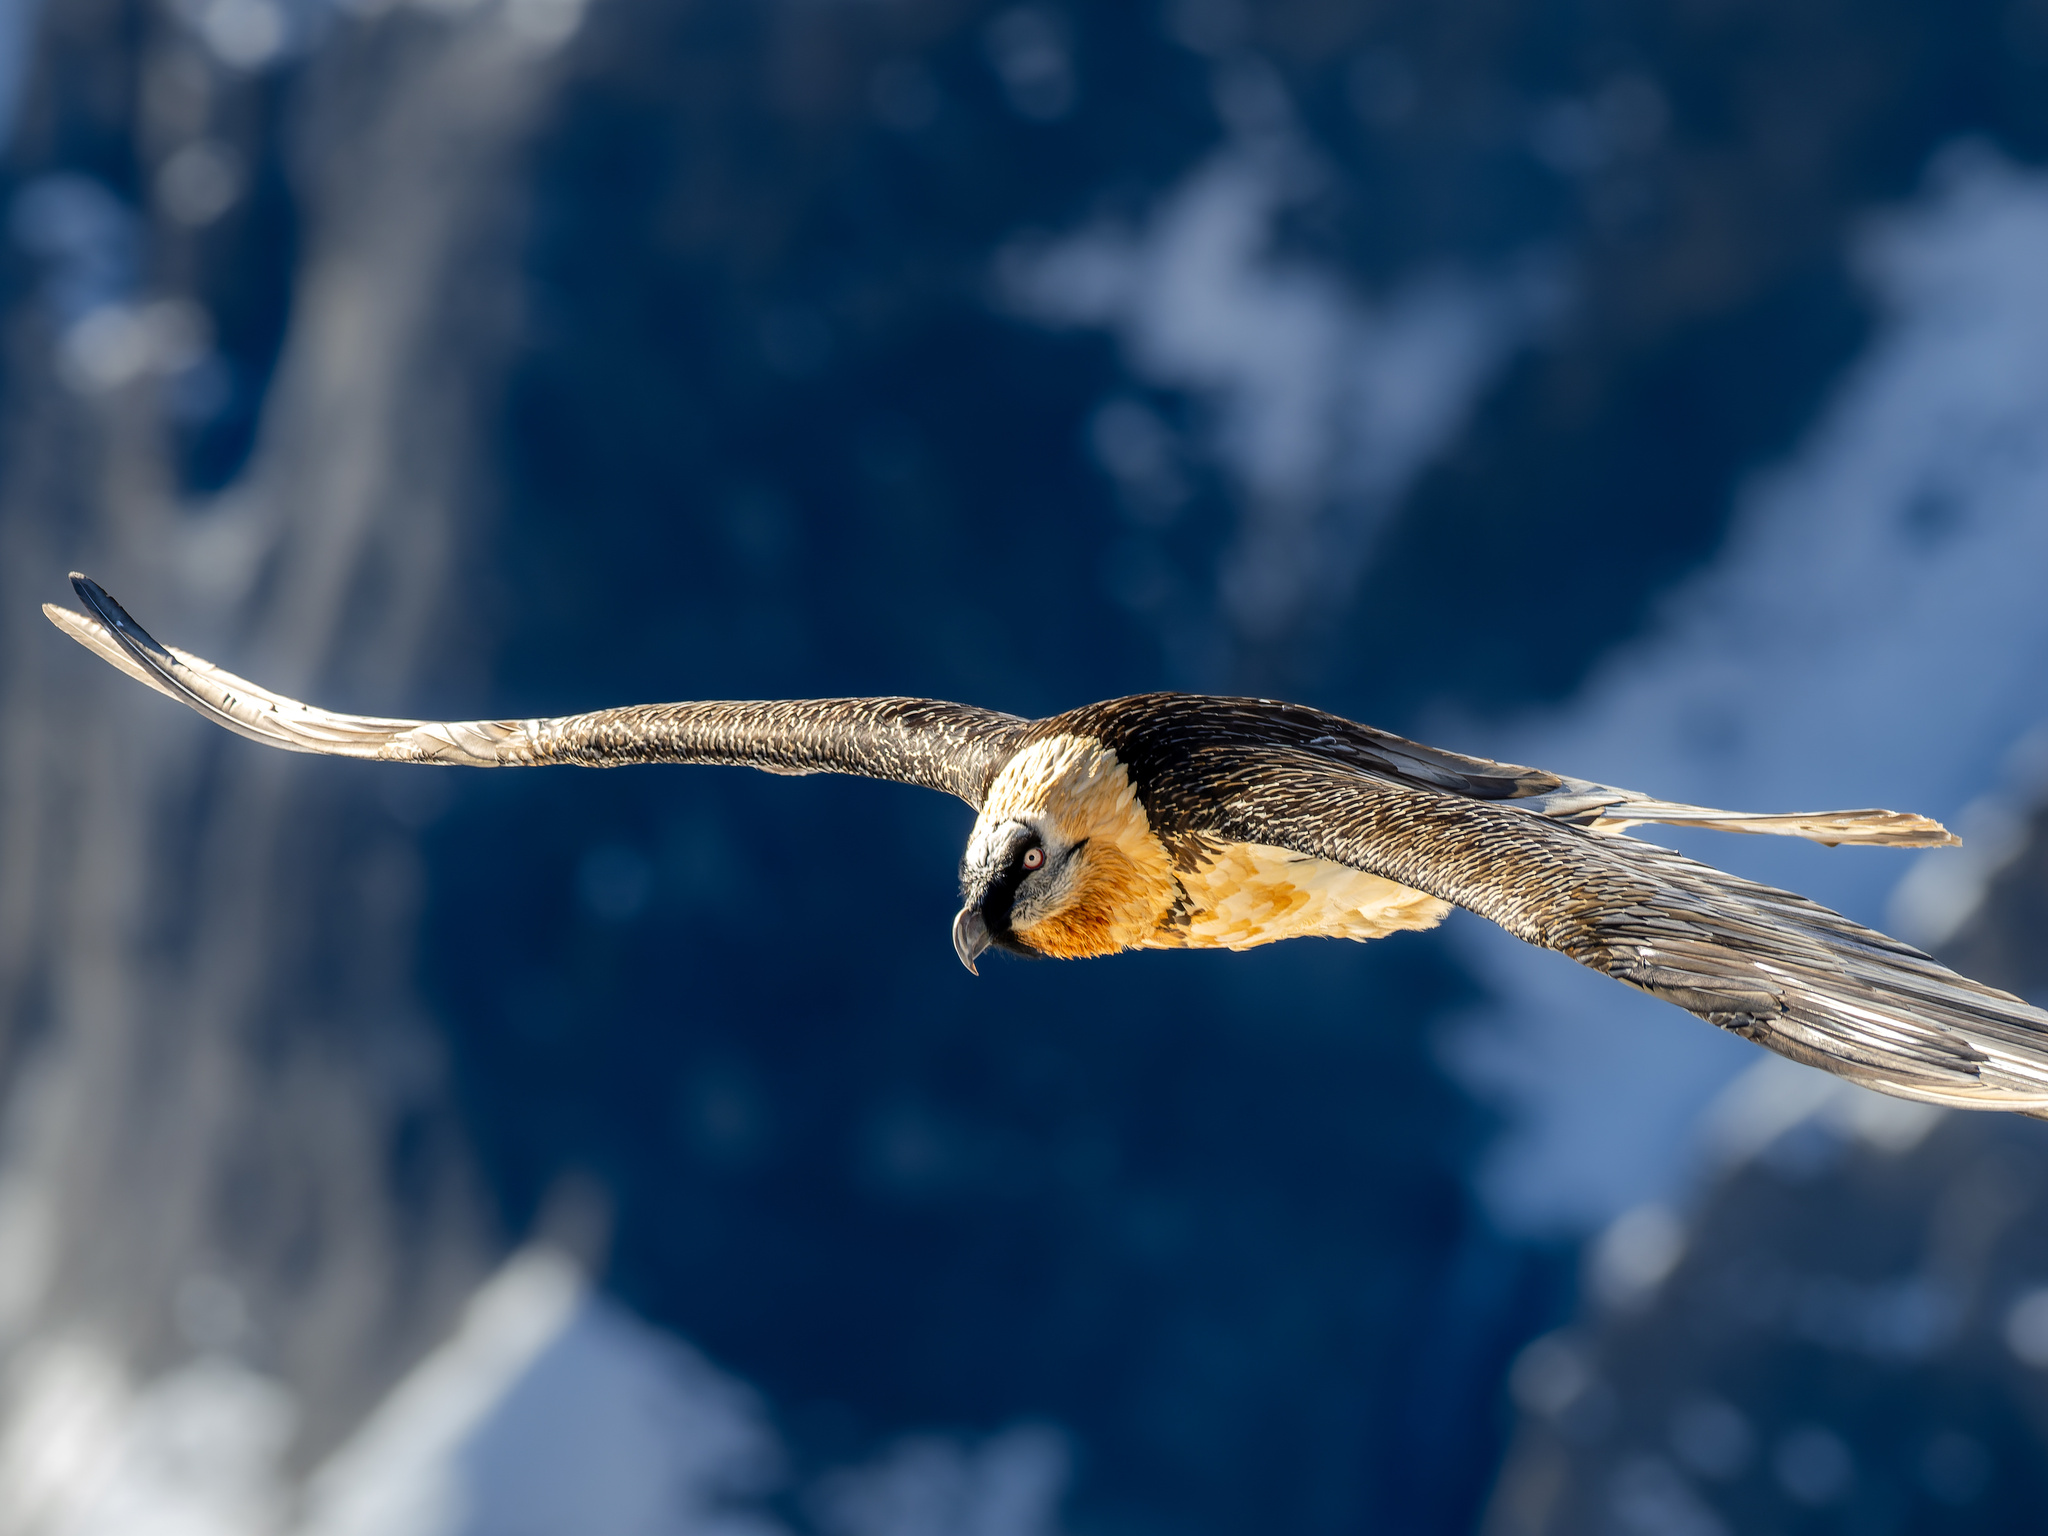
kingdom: Animalia
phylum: Chordata
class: Aves
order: Accipitriformes
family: Accipitridae
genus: Gypaetus
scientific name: Gypaetus barbatus
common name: Bearded vulture
